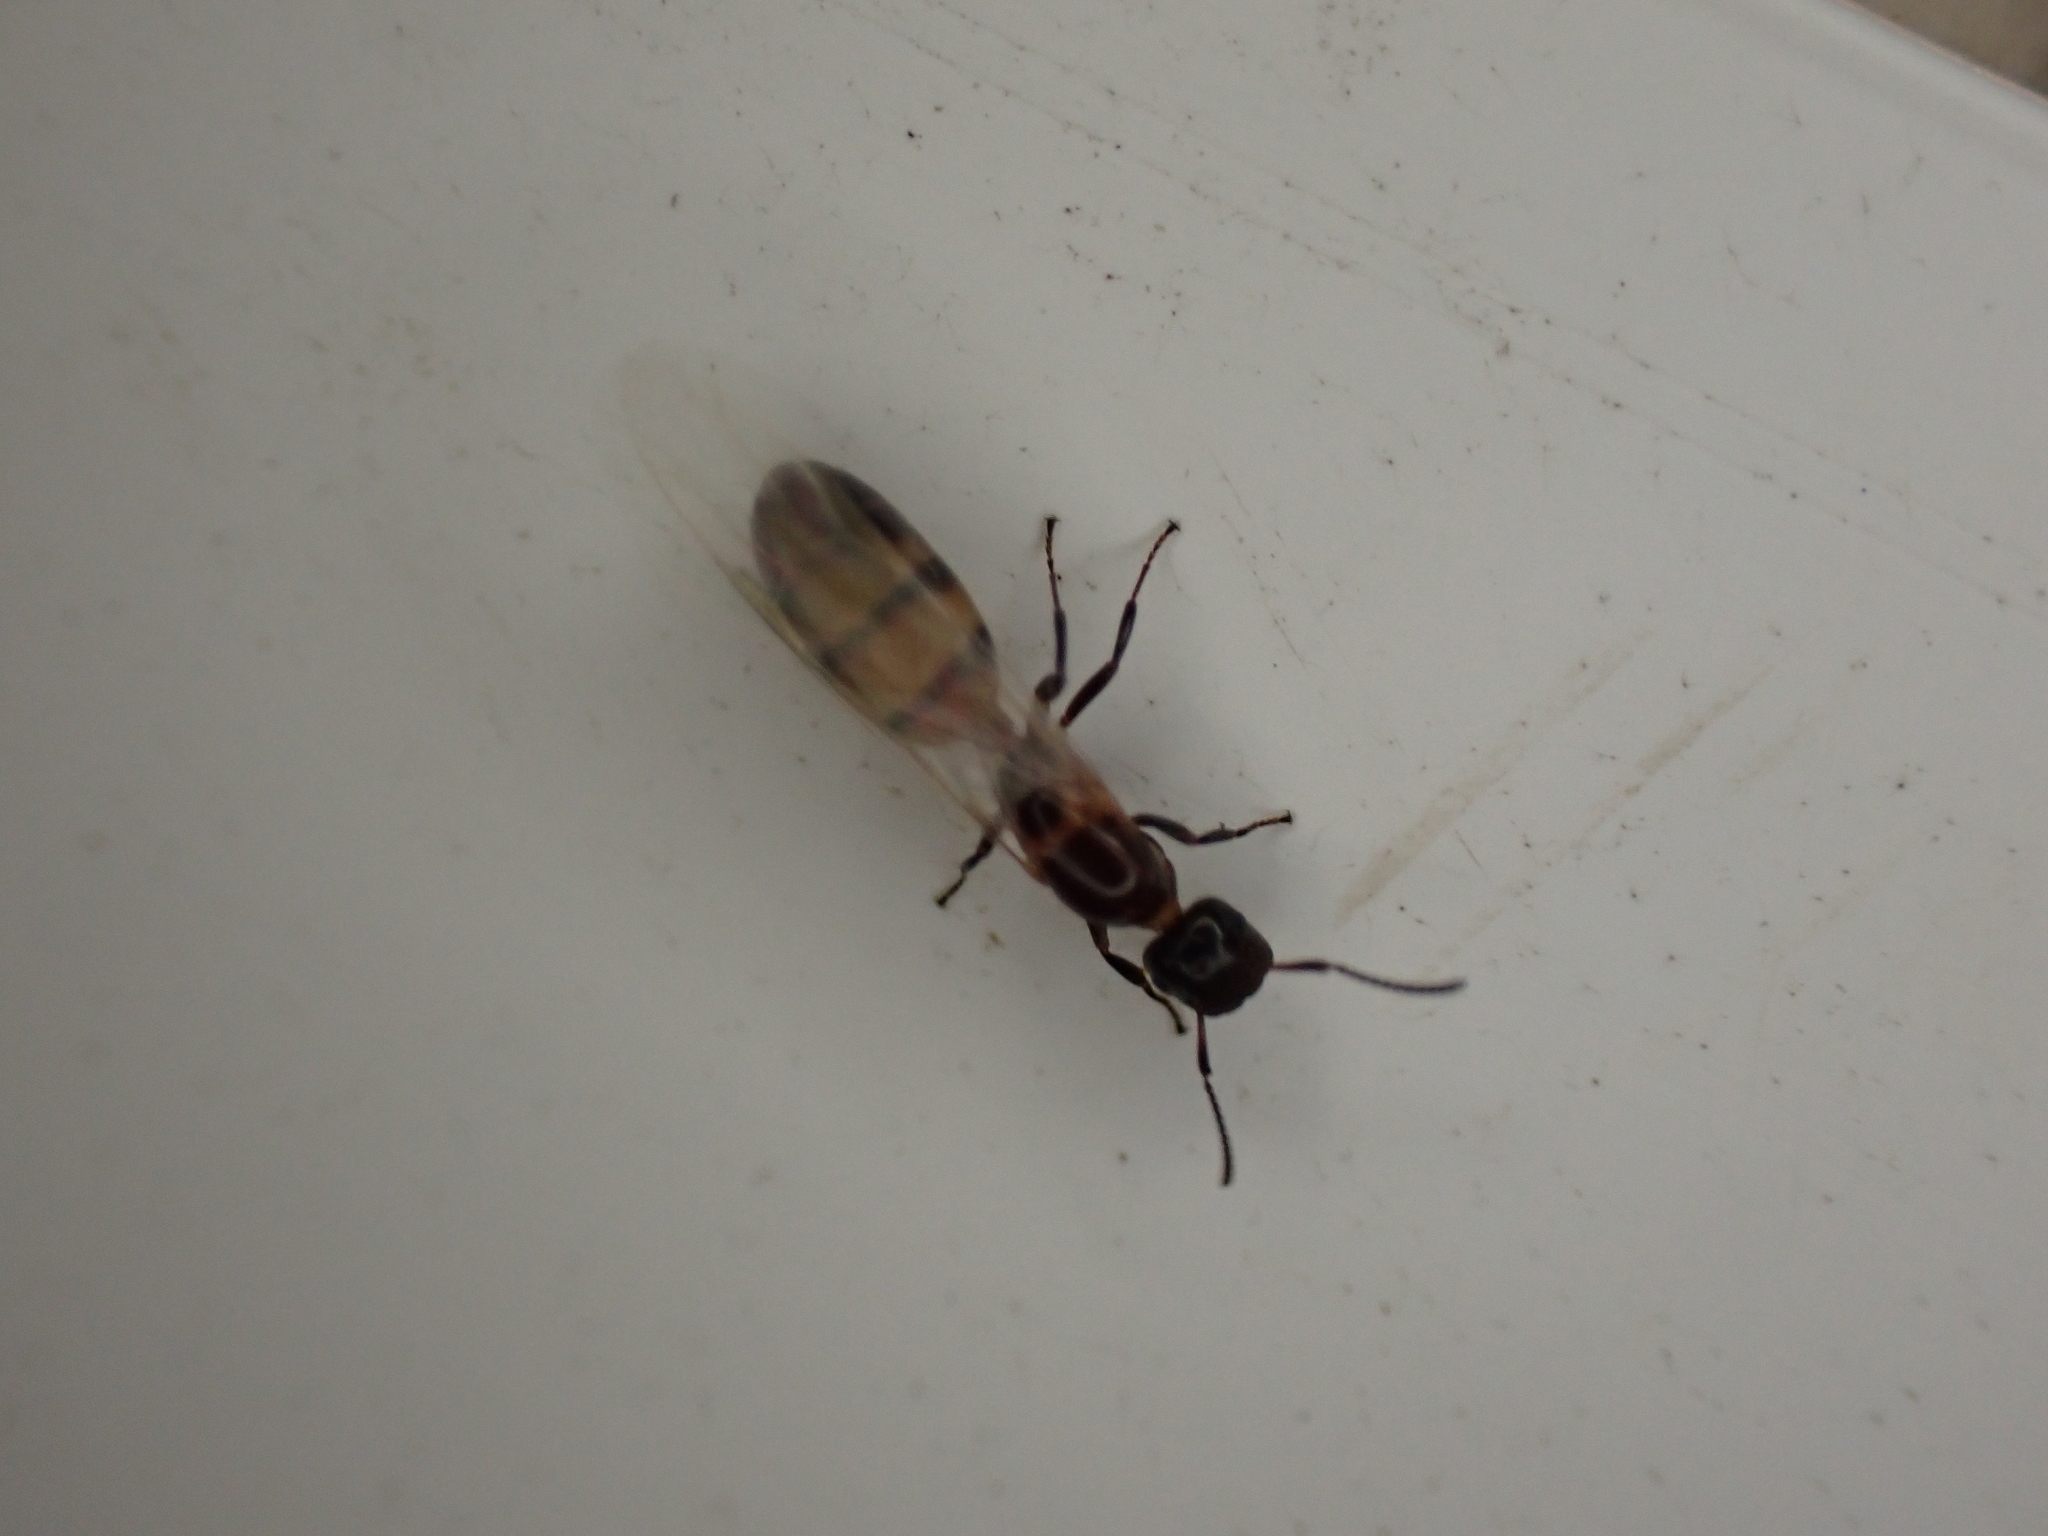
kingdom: Animalia
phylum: Arthropoda
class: Insecta
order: Hymenoptera
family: Formicidae
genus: Colobopsis
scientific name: Colobopsis impressa
